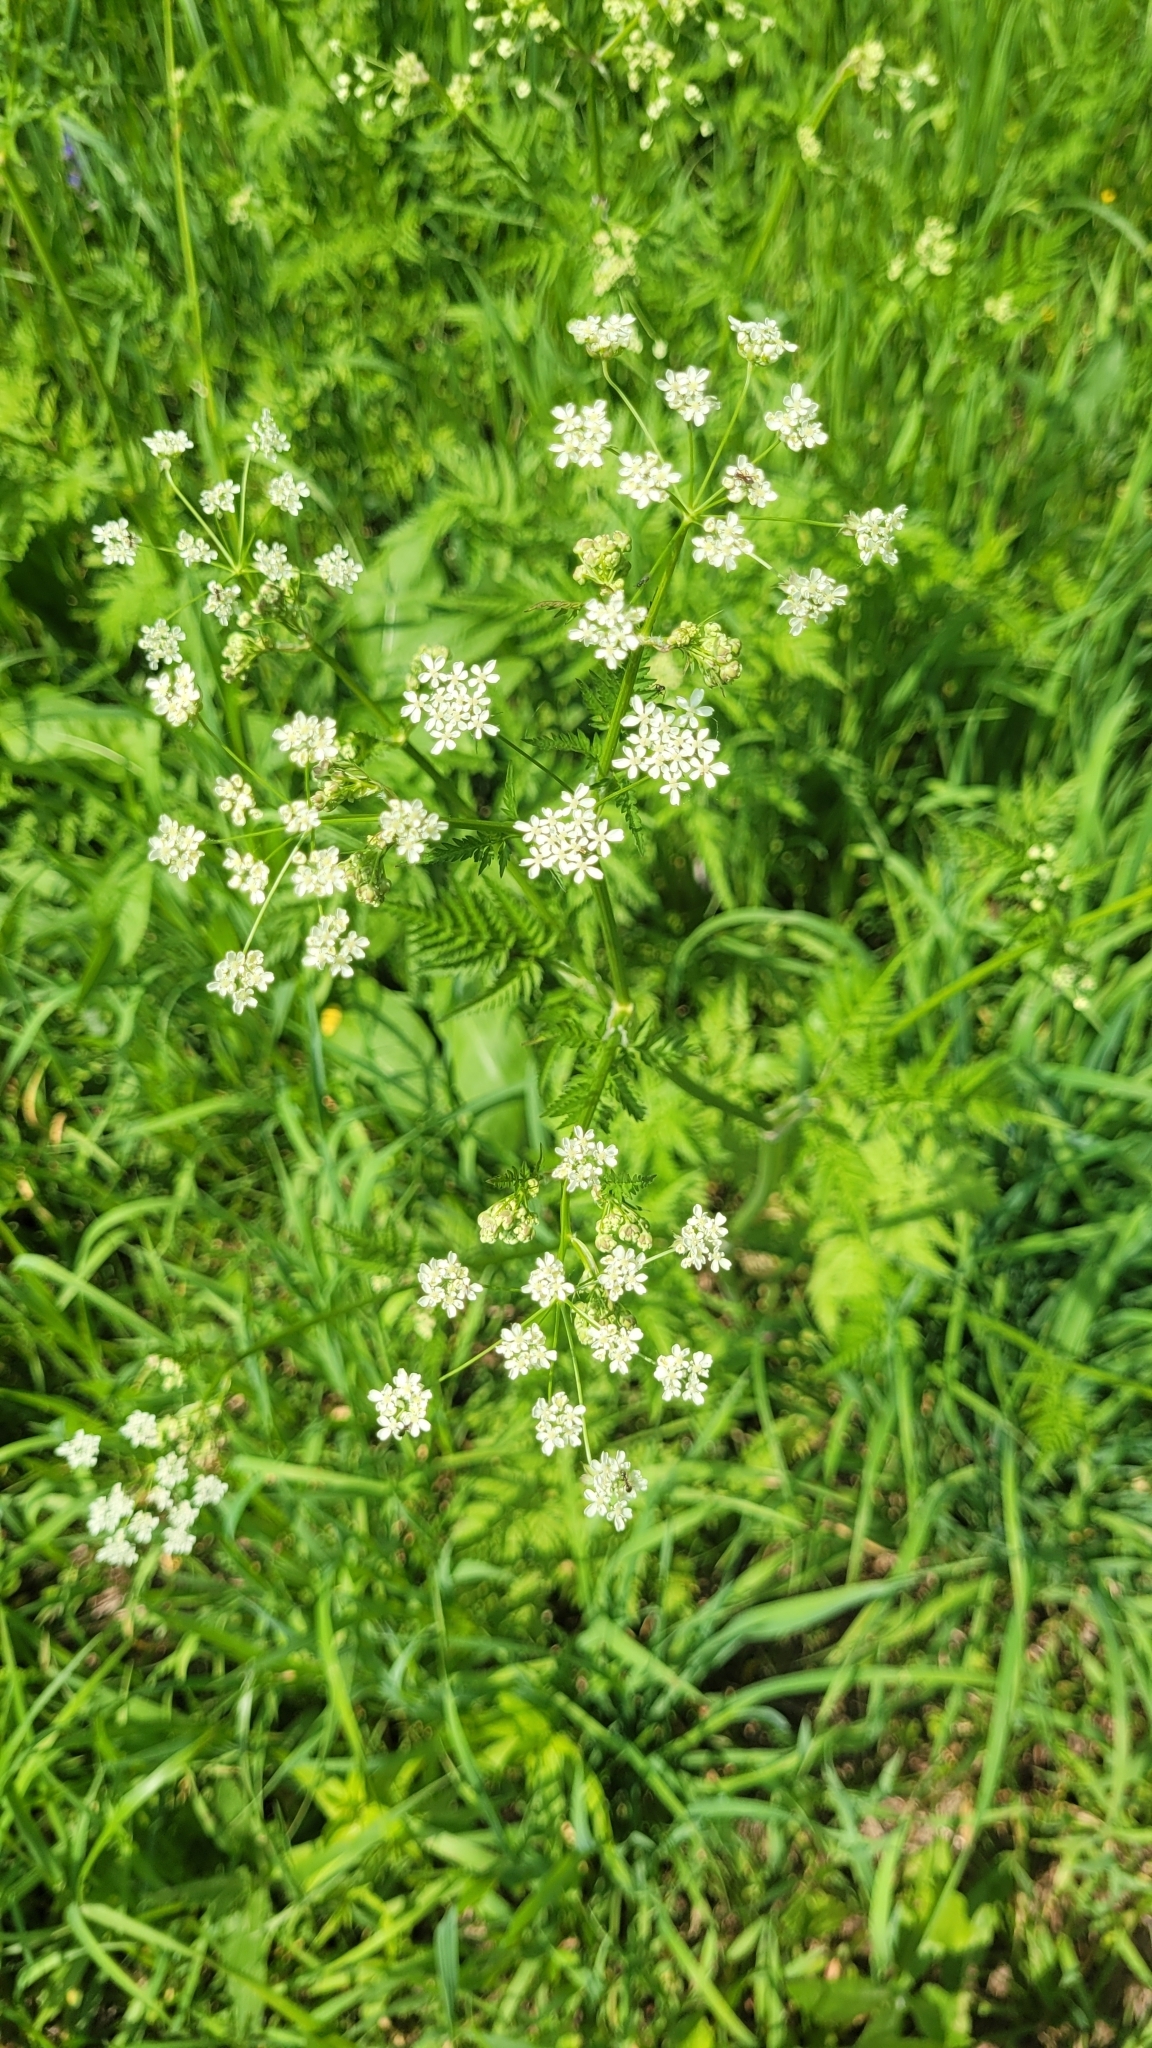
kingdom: Plantae
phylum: Tracheophyta
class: Magnoliopsida
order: Apiales
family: Apiaceae
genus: Anthriscus
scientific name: Anthriscus sylvestris
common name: Cow parsley
